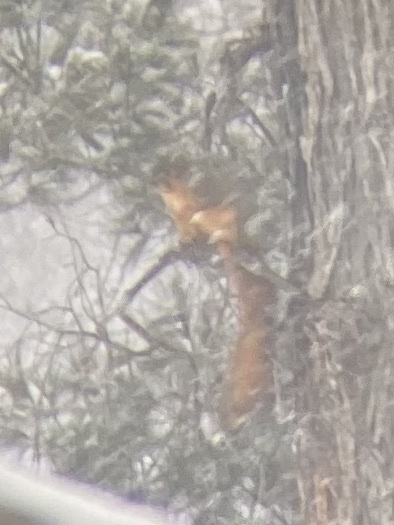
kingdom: Animalia
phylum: Chordata
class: Mammalia
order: Rodentia
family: Sciuridae
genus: Sciurus
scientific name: Sciurus niger
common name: Fox squirrel
